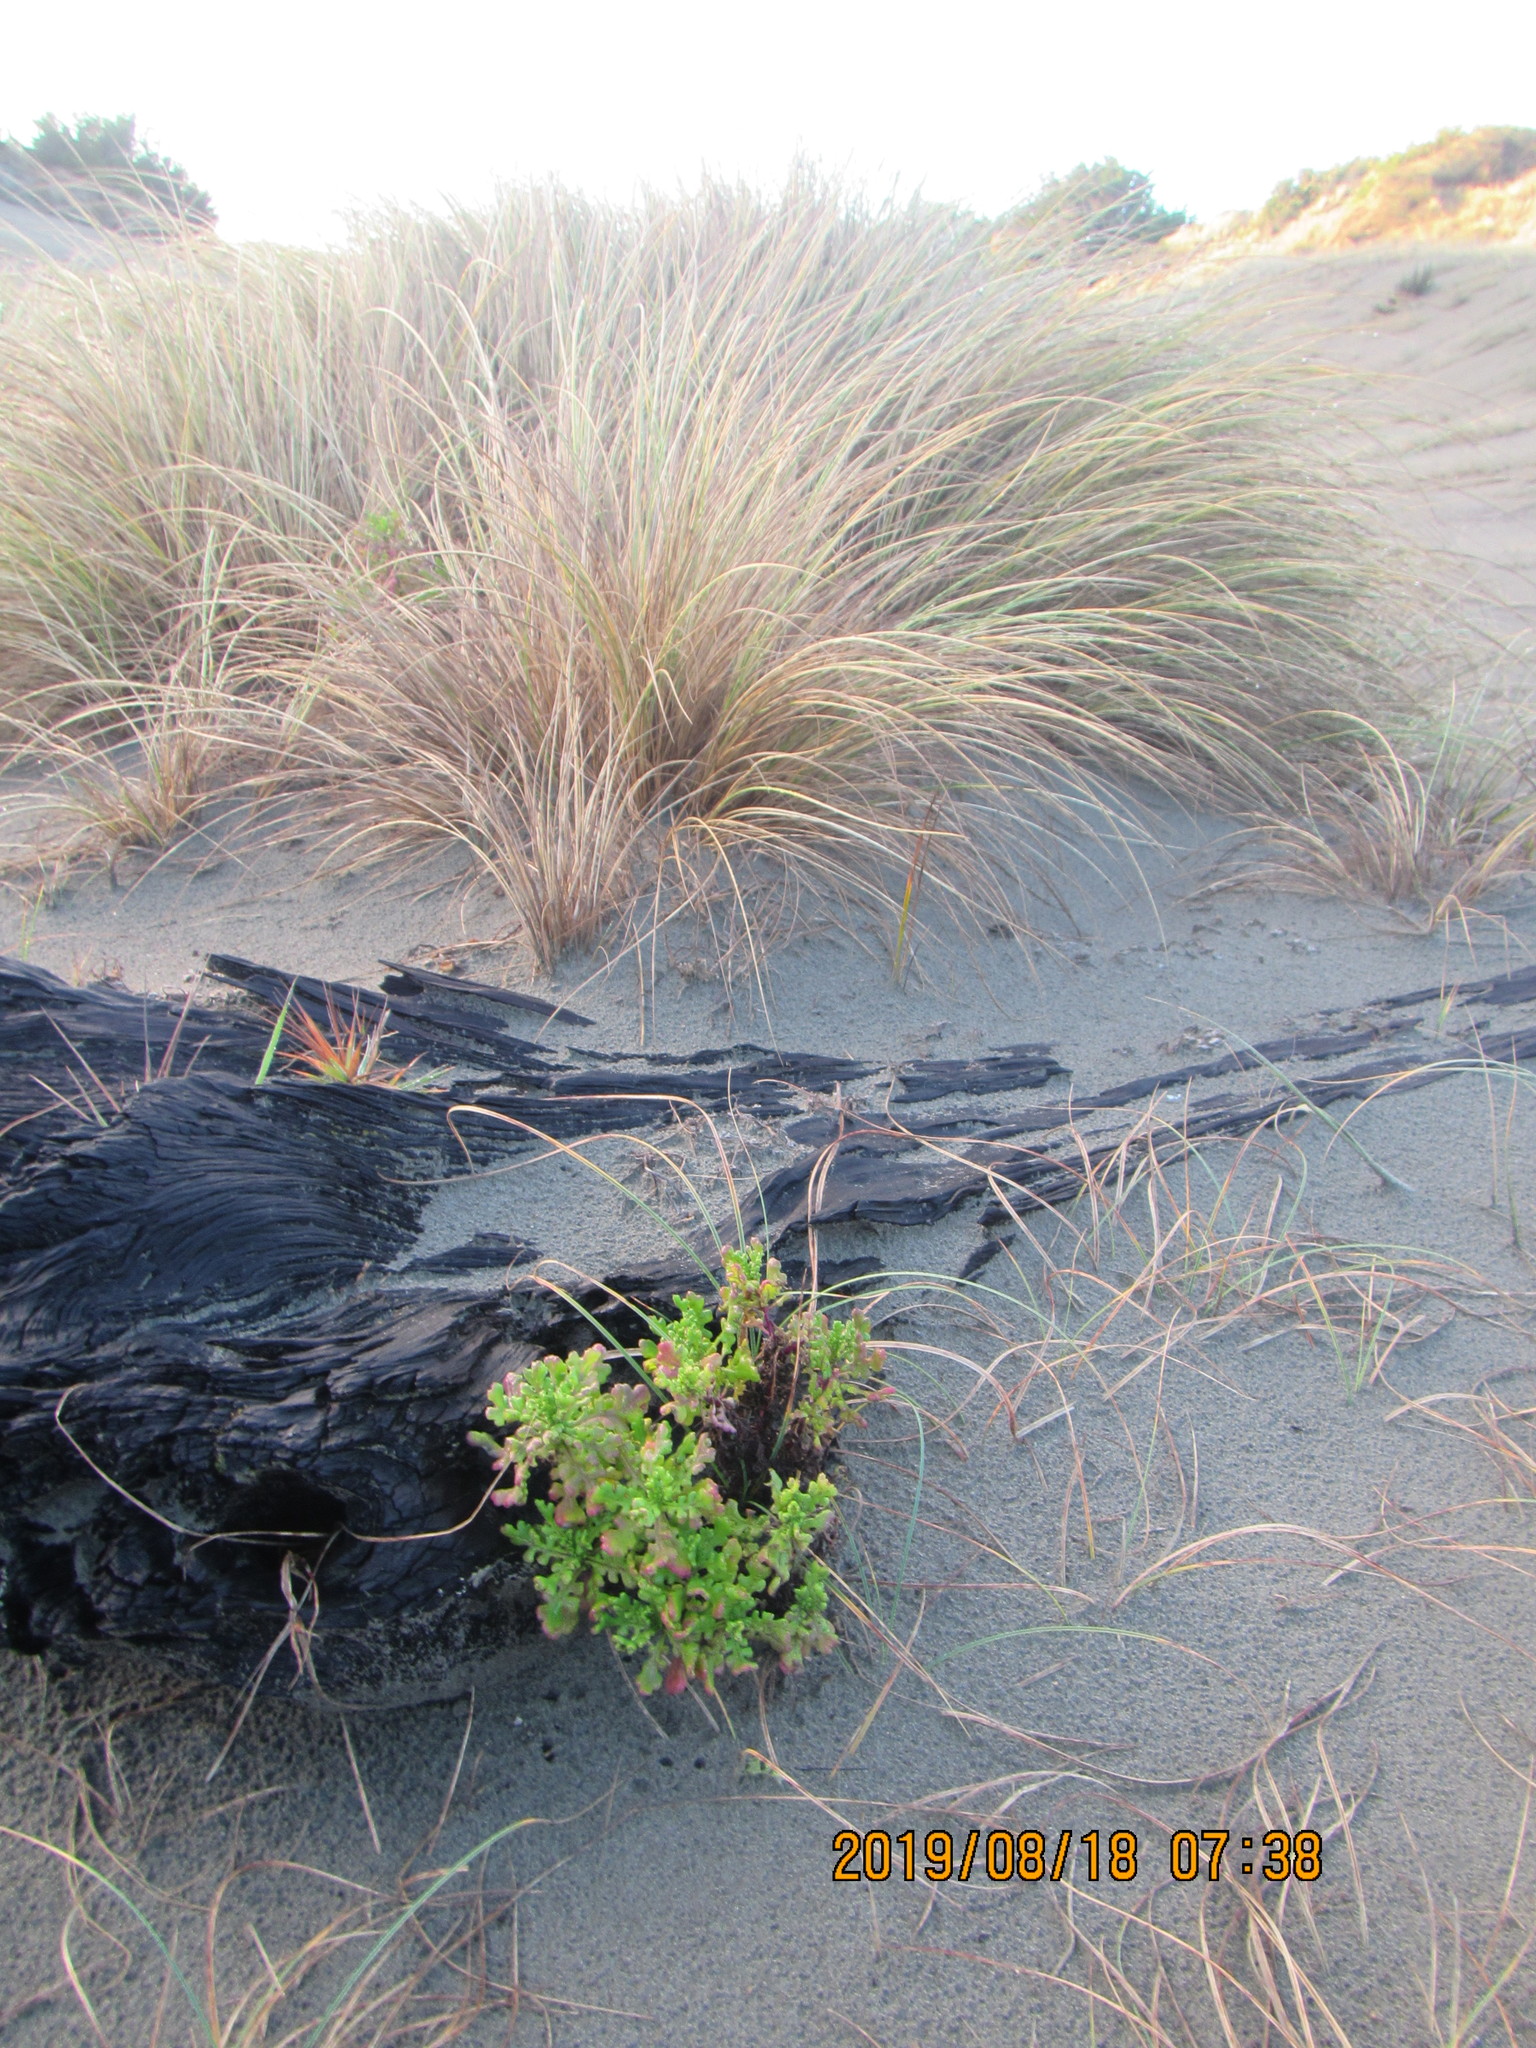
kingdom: Plantae
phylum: Tracheophyta
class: Magnoliopsida
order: Asterales
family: Asteraceae
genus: Senecio
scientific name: Senecio elegans
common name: Purple groundsel
